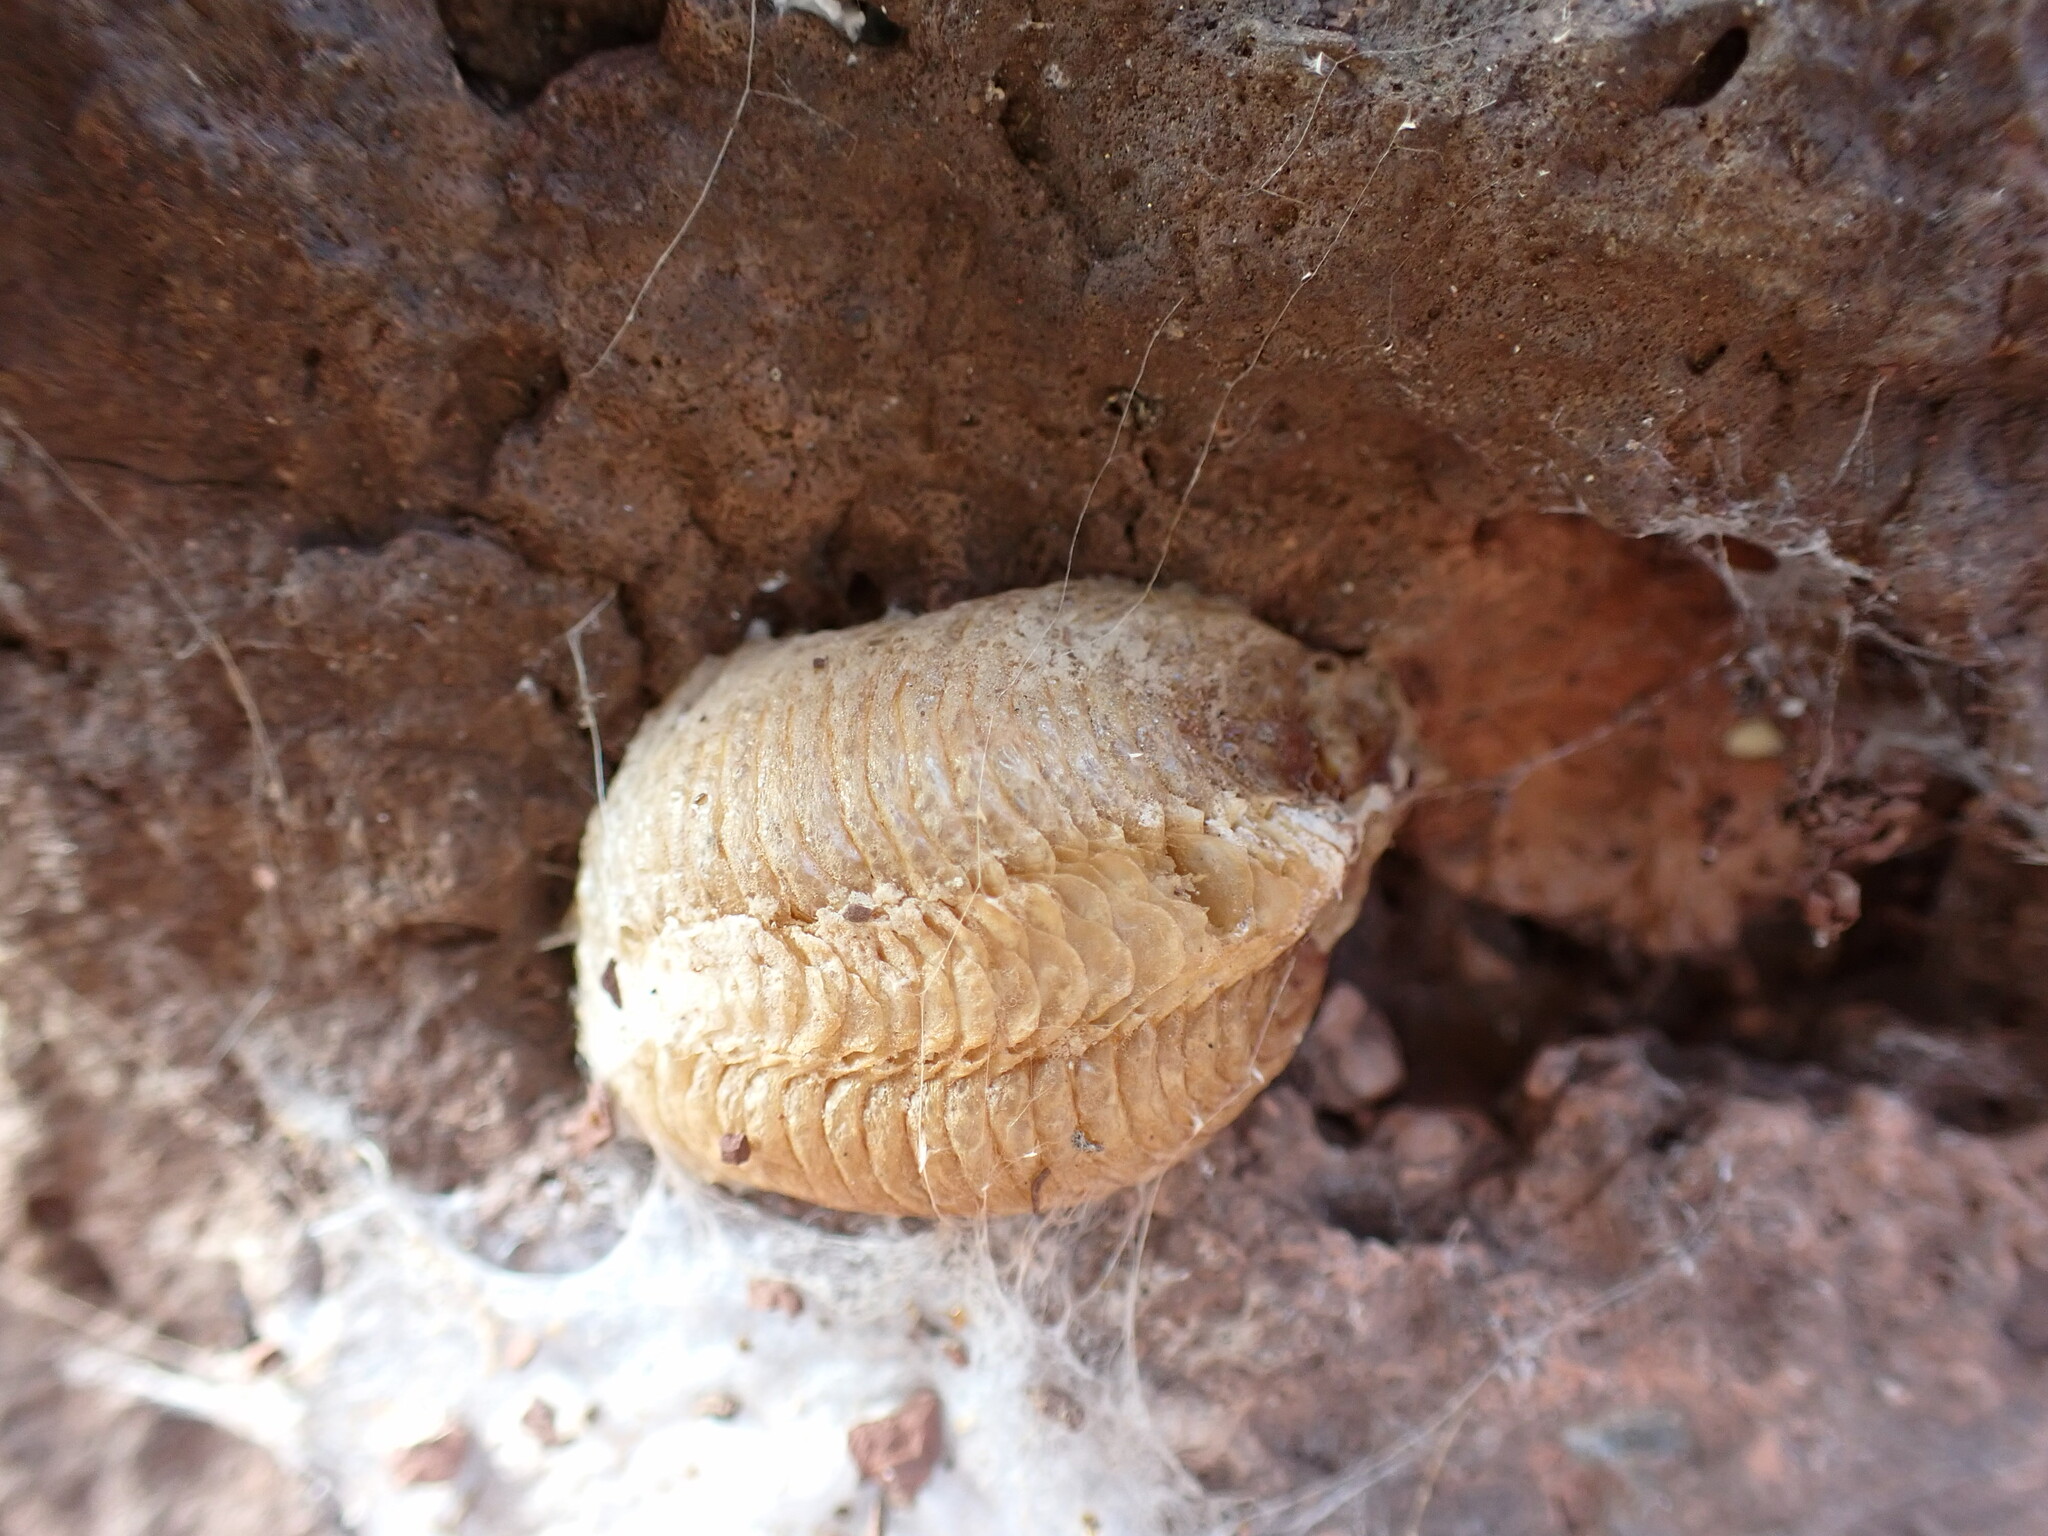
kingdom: Animalia
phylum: Arthropoda
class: Insecta
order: Mantodea
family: Mantidae
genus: Mantis
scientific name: Mantis religiosa
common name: Praying mantis
